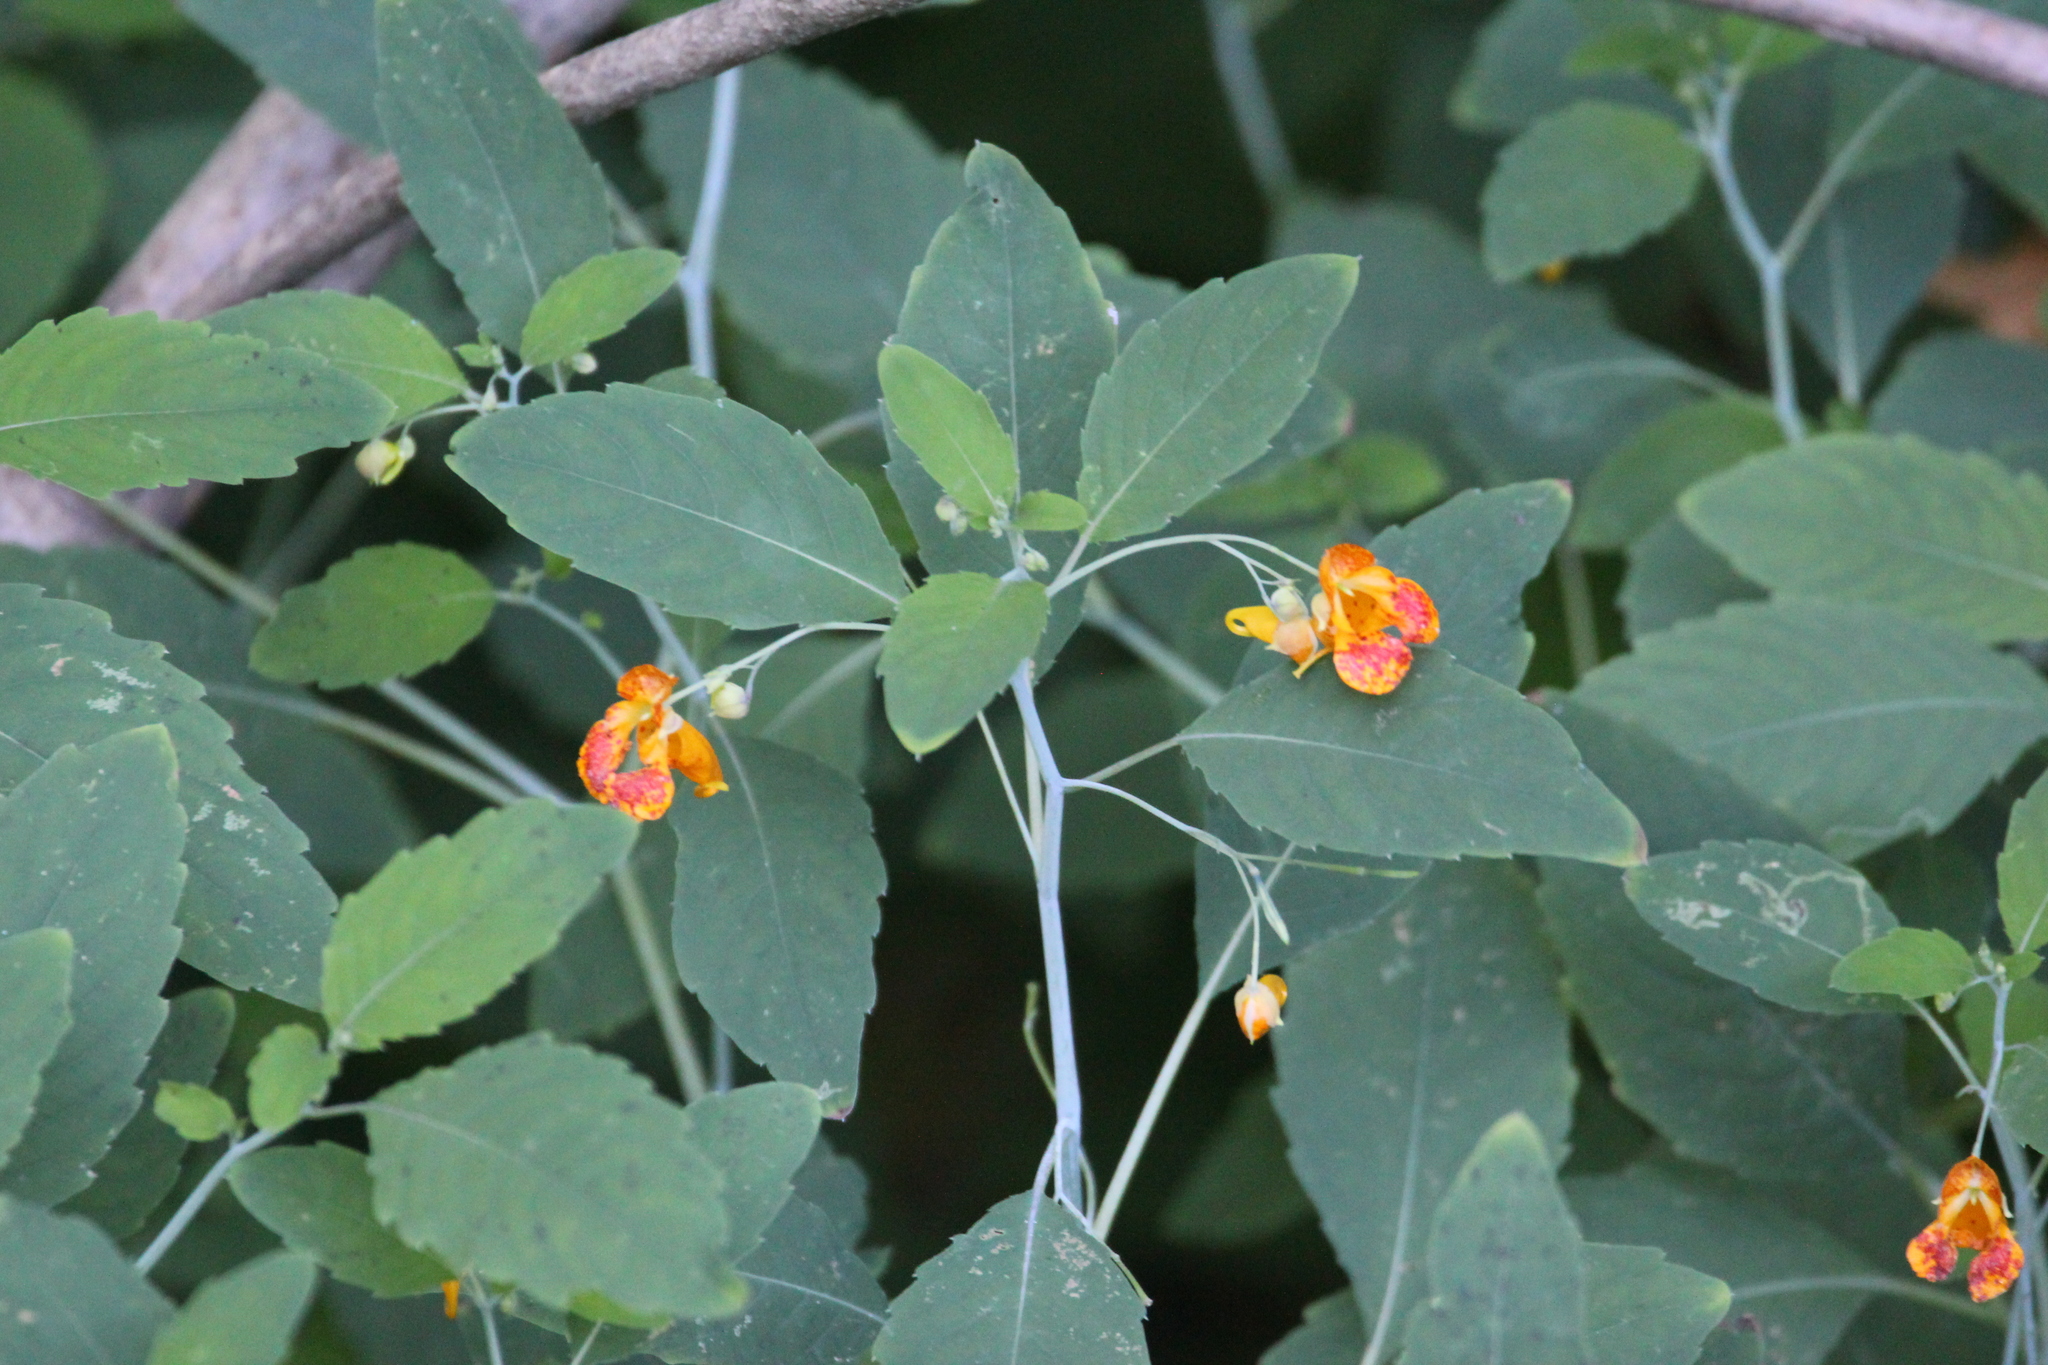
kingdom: Plantae
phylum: Tracheophyta
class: Magnoliopsida
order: Ericales
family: Balsaminaceae
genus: Impatiens
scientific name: Impatiens capensis
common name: Orange balsam
